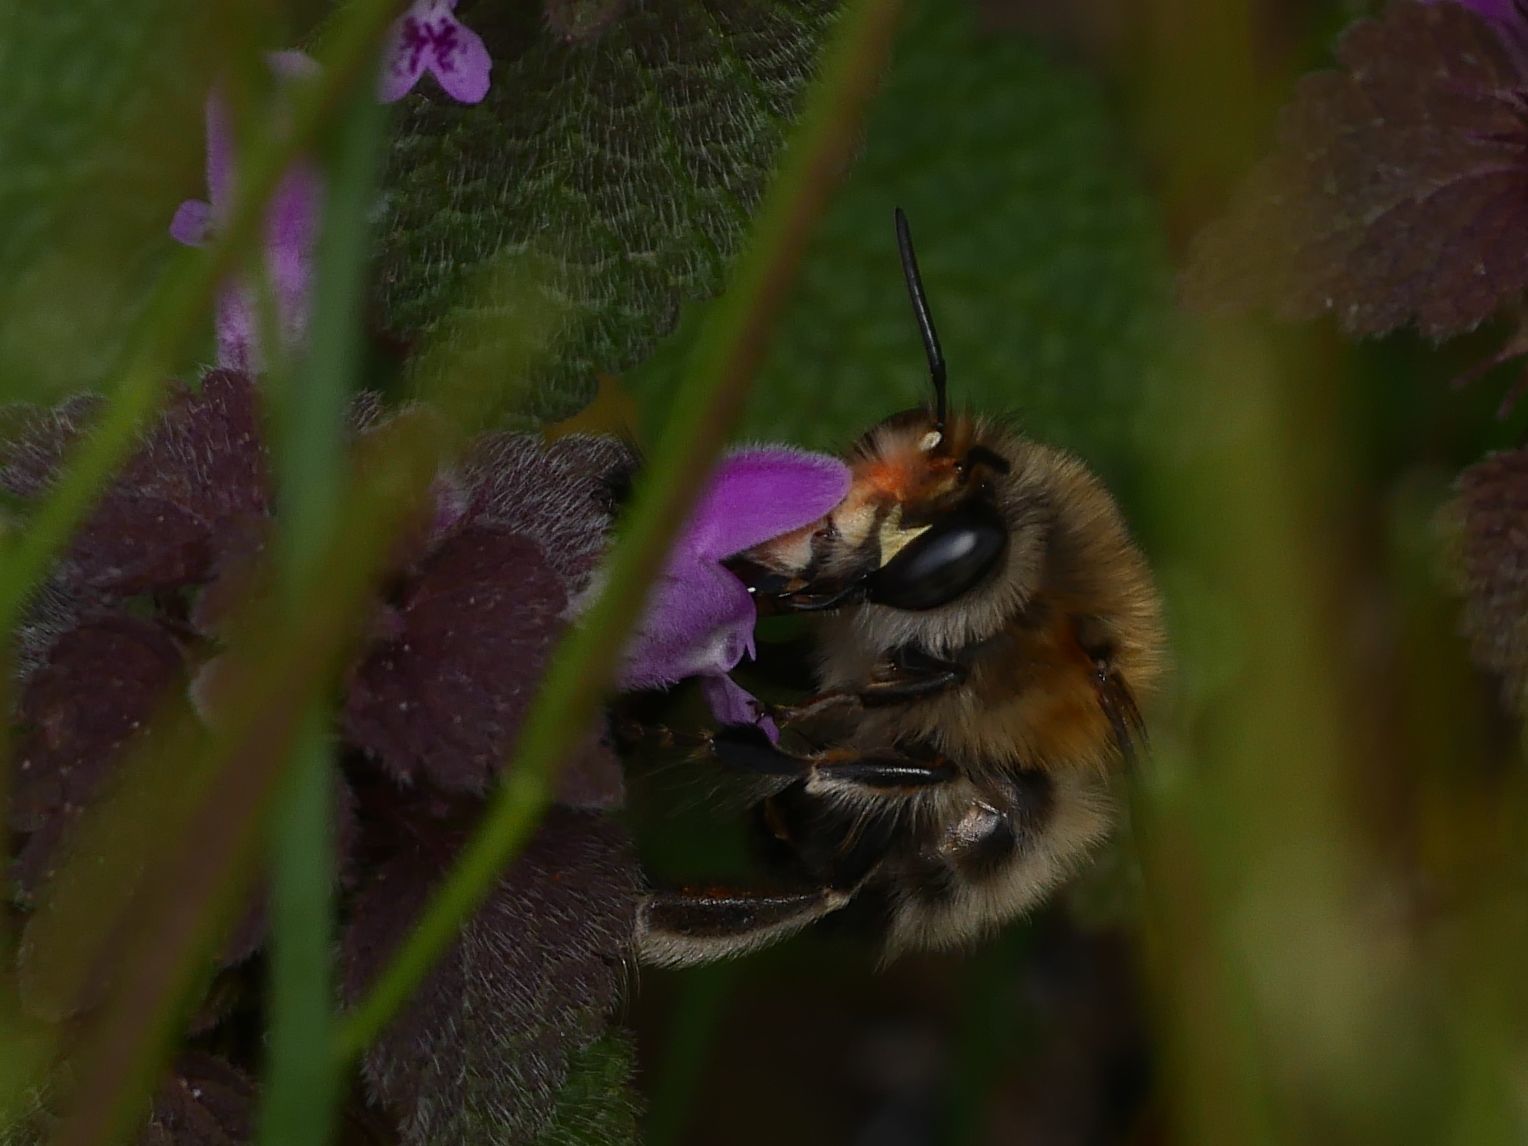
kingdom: Animalia
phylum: Arthropoda
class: Insecta
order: Hymenoptera
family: Apidae
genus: Anthophora
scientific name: Anthophora plumipes
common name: Hairy-footed flower bee
